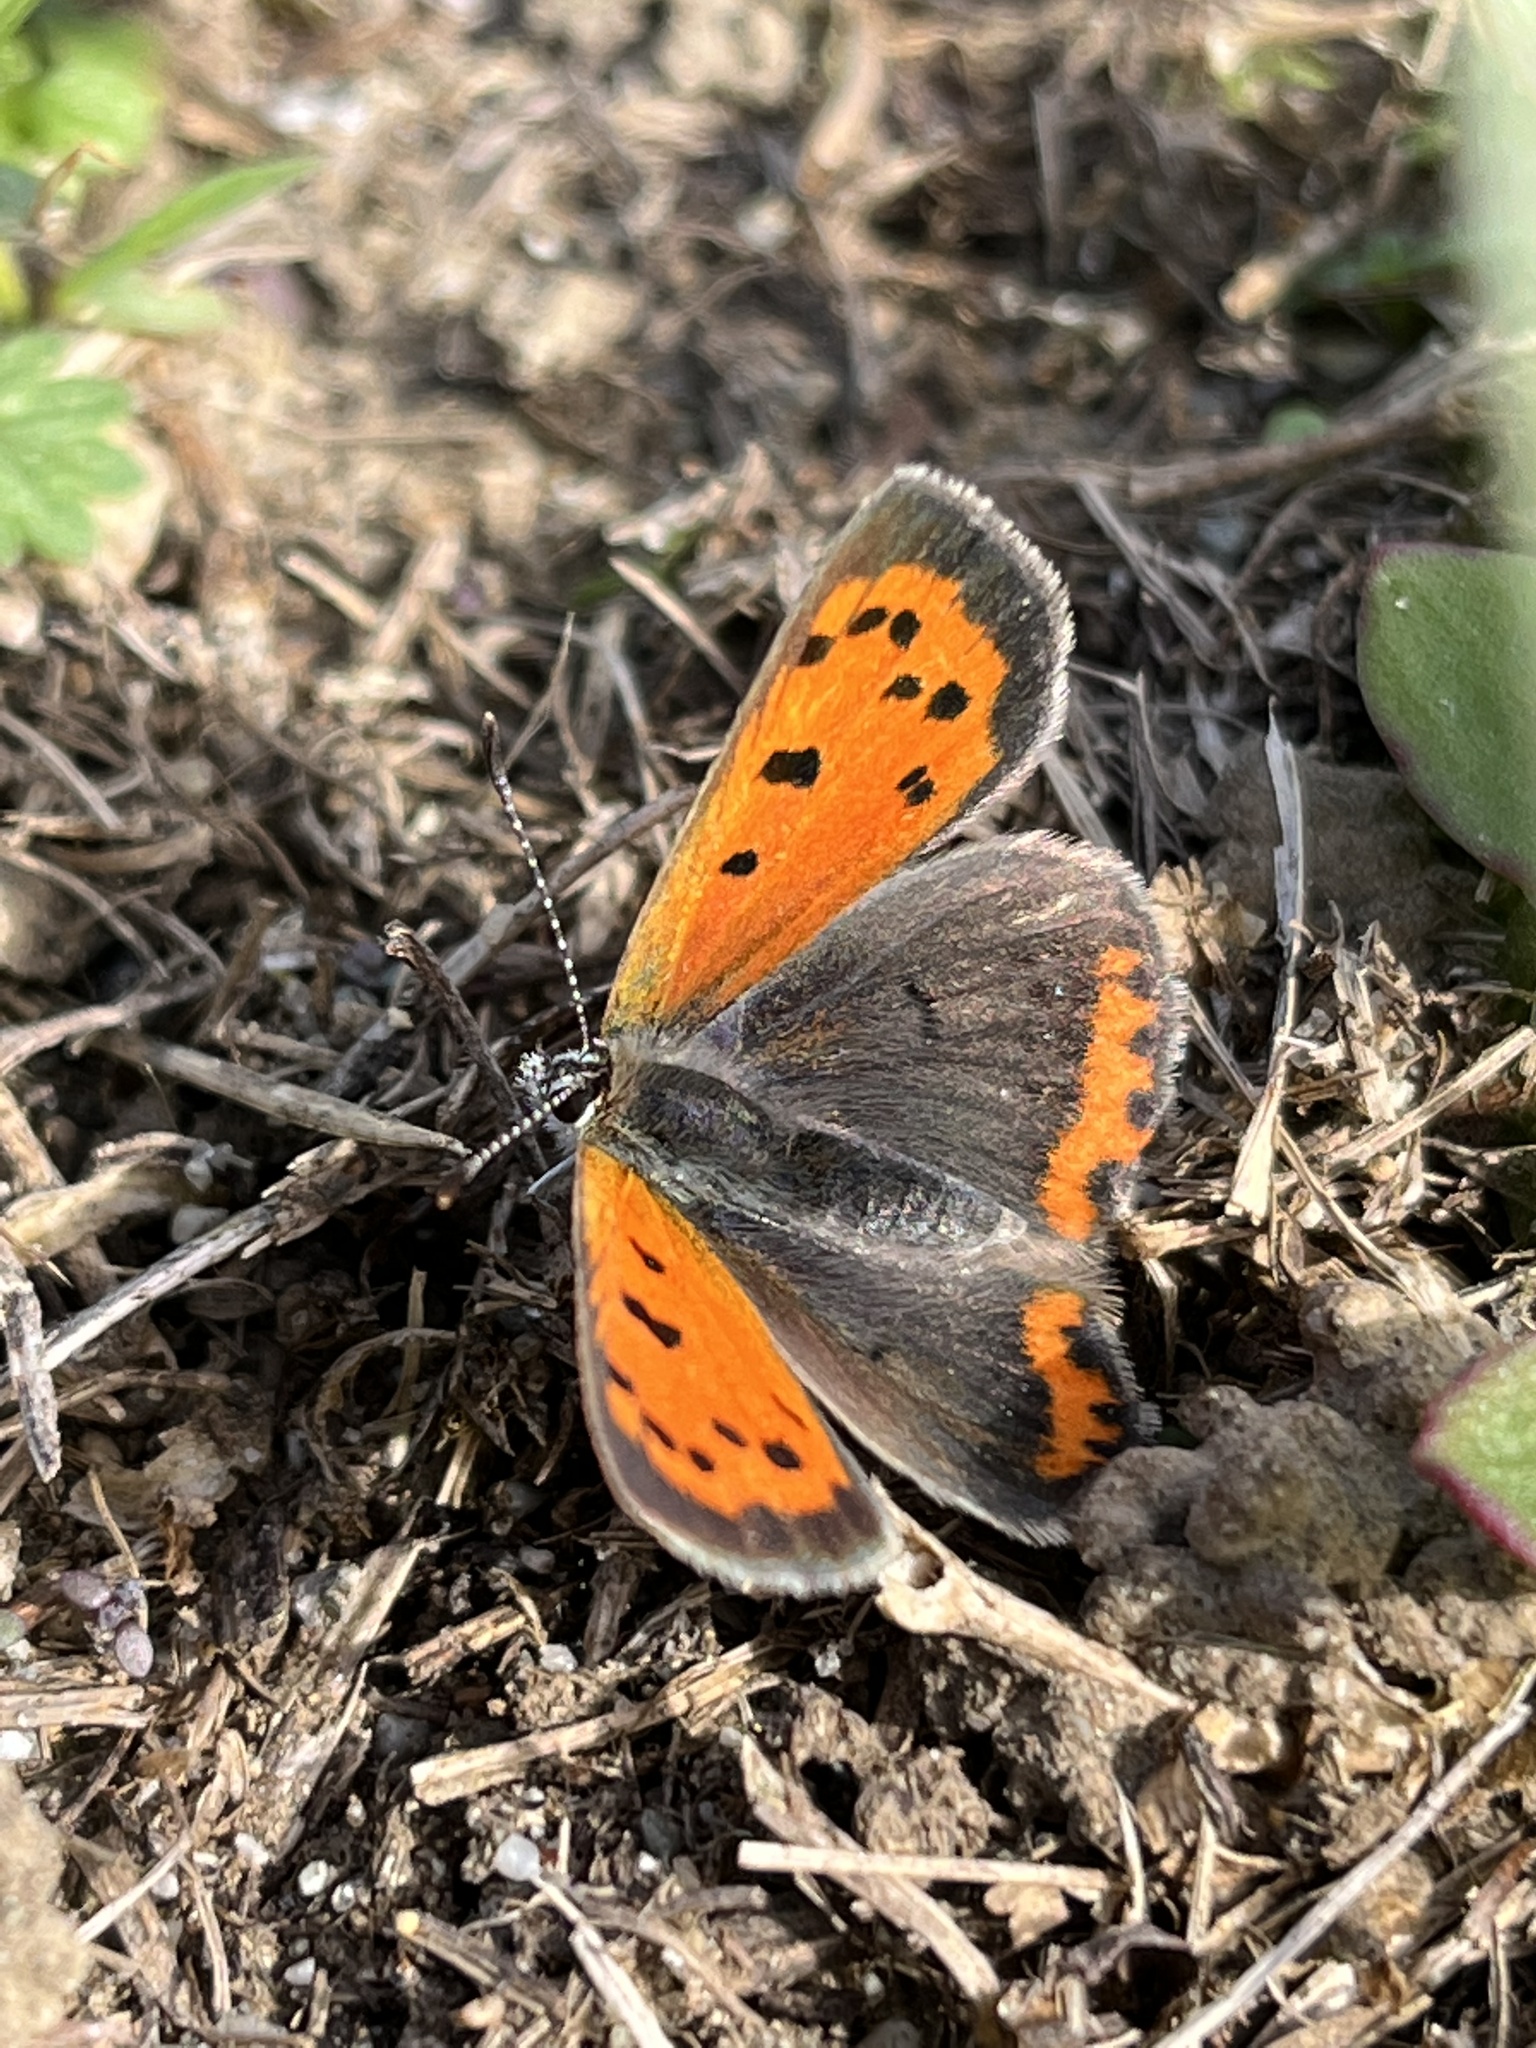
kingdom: Animalia
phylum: Arthropoda
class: Insecta
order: Lepidoptera
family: Lycaenidae
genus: Lycaena
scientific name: Lycaena hypophlaeas
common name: American copper
